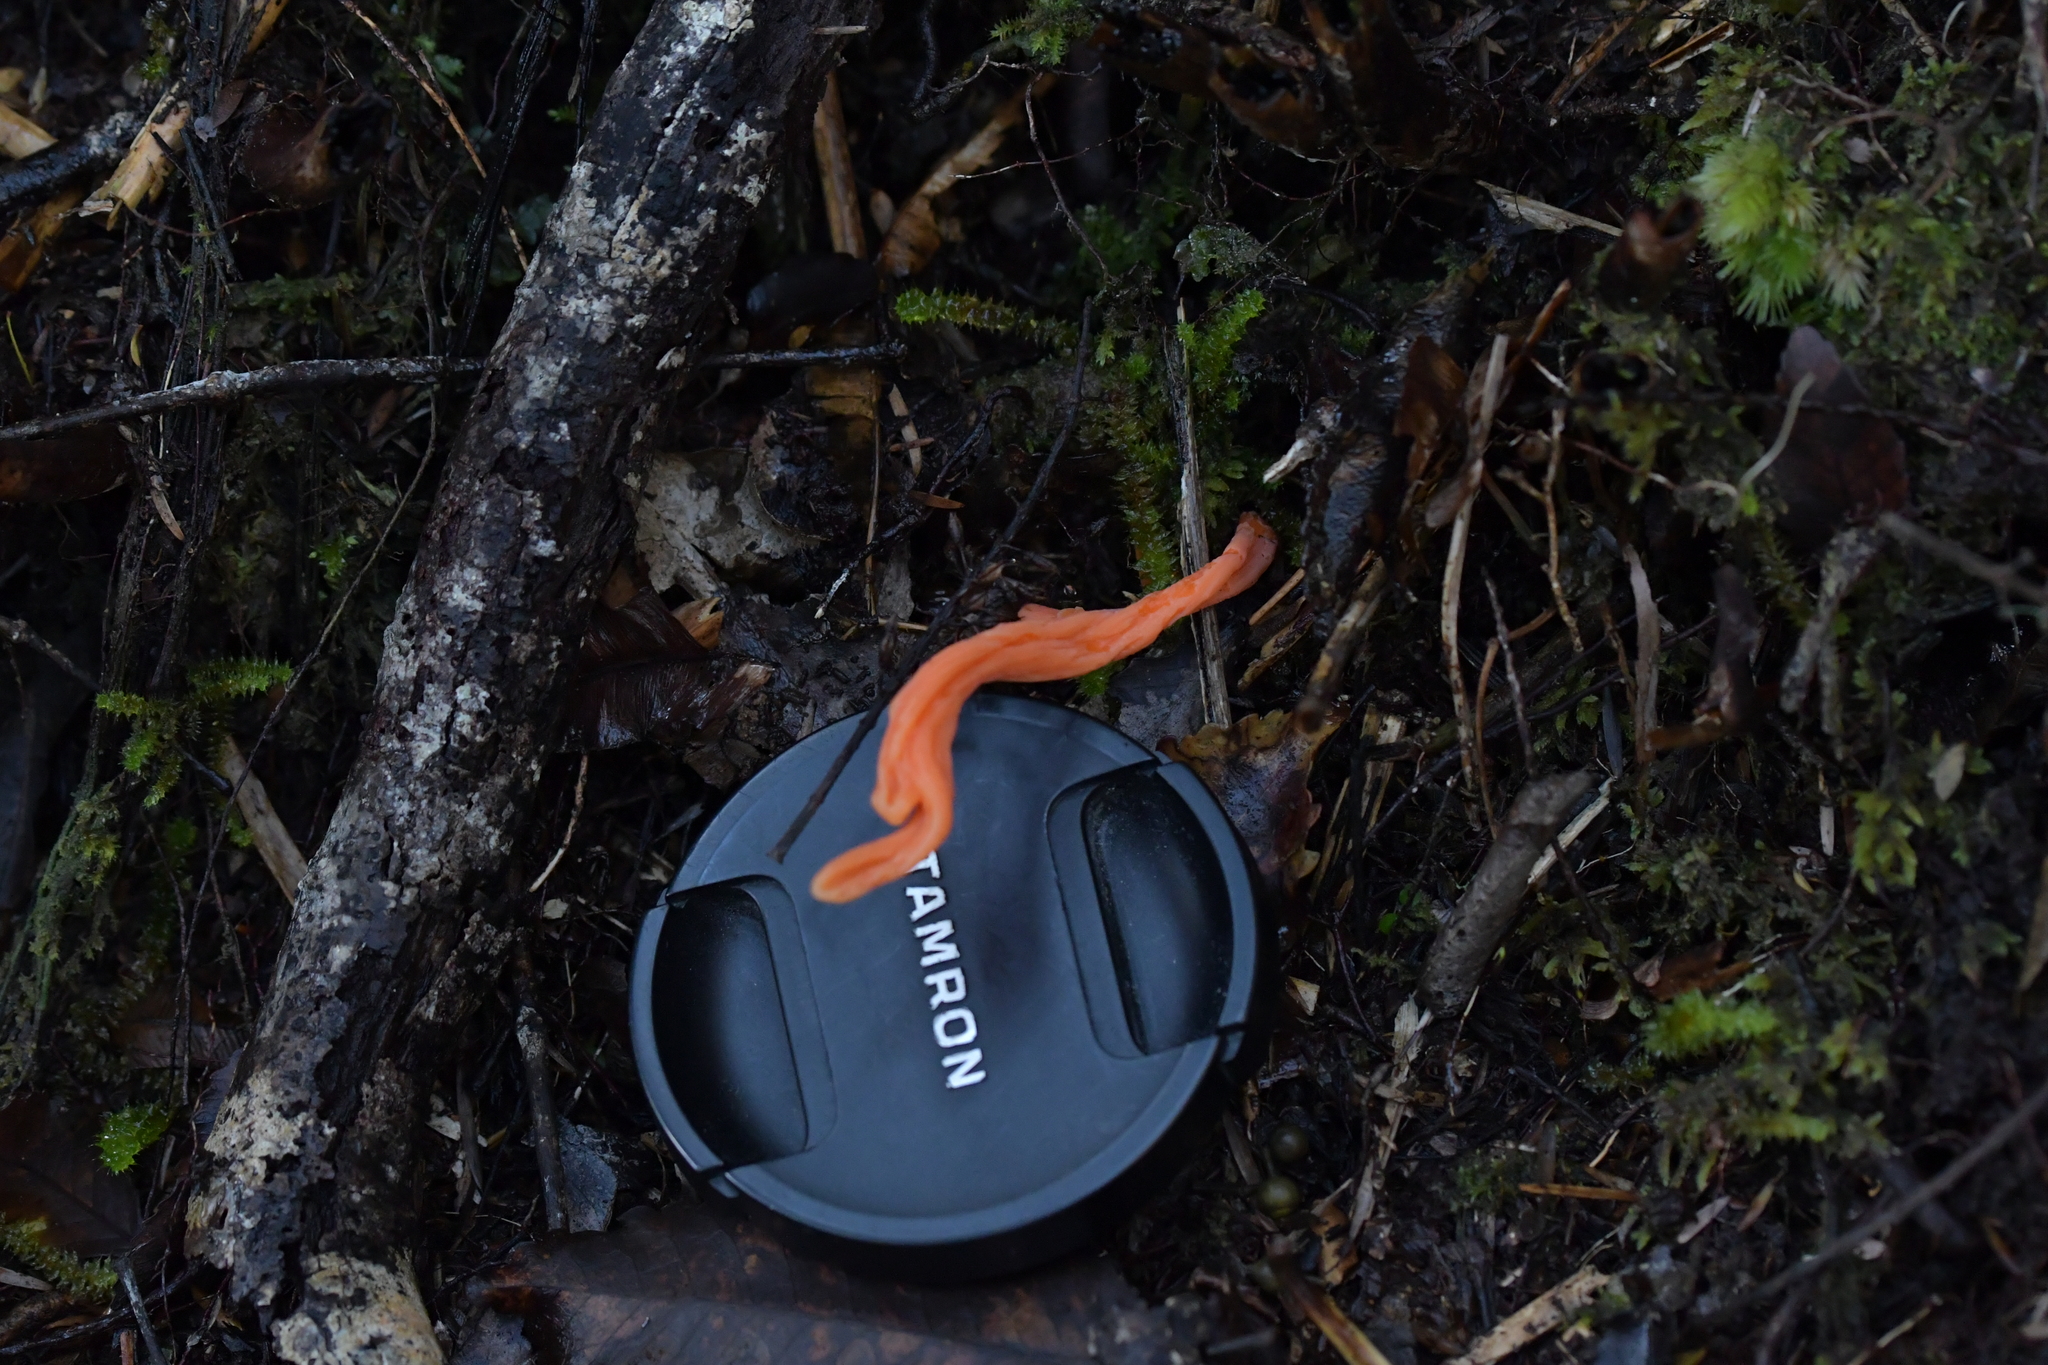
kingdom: Fungi
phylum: Basidiomycota
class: Agaricomycetes
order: Agaricales
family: Clavariaceae
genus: Clavulinopsis
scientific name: Clavulinopsis sulcata
